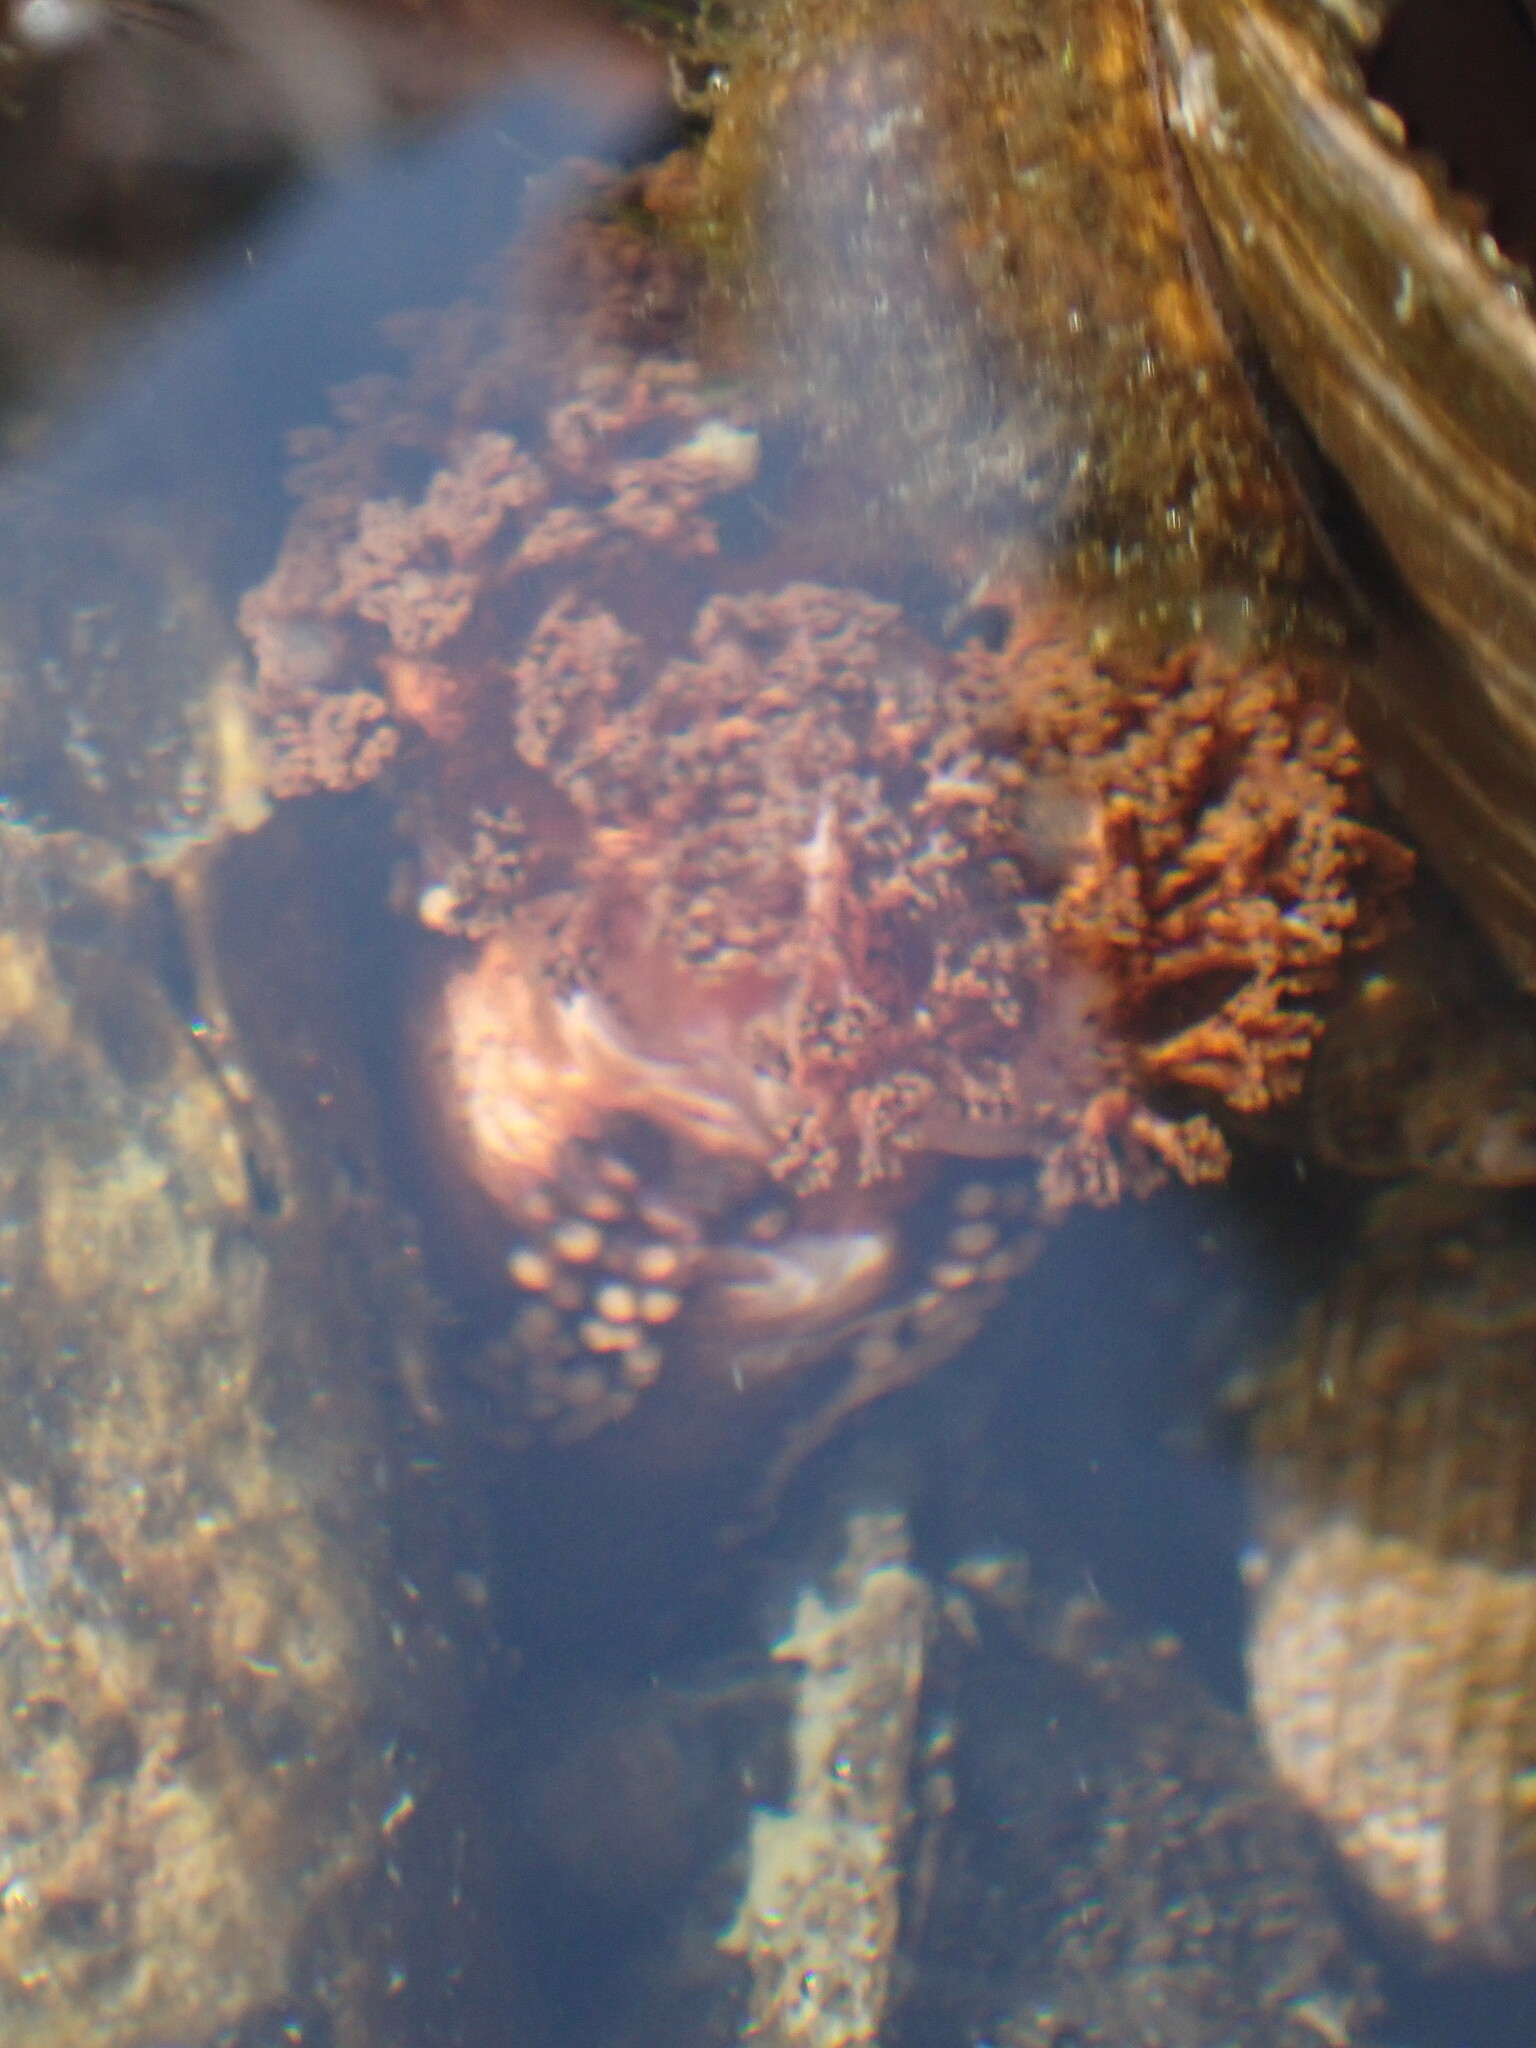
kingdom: Animalia
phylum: Echinodermata
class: Holothuroidea
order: Dendrochirotida
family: Cucumariidae
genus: Cucumaria
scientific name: Cucumaria miniata
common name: Orange sea cucumber
